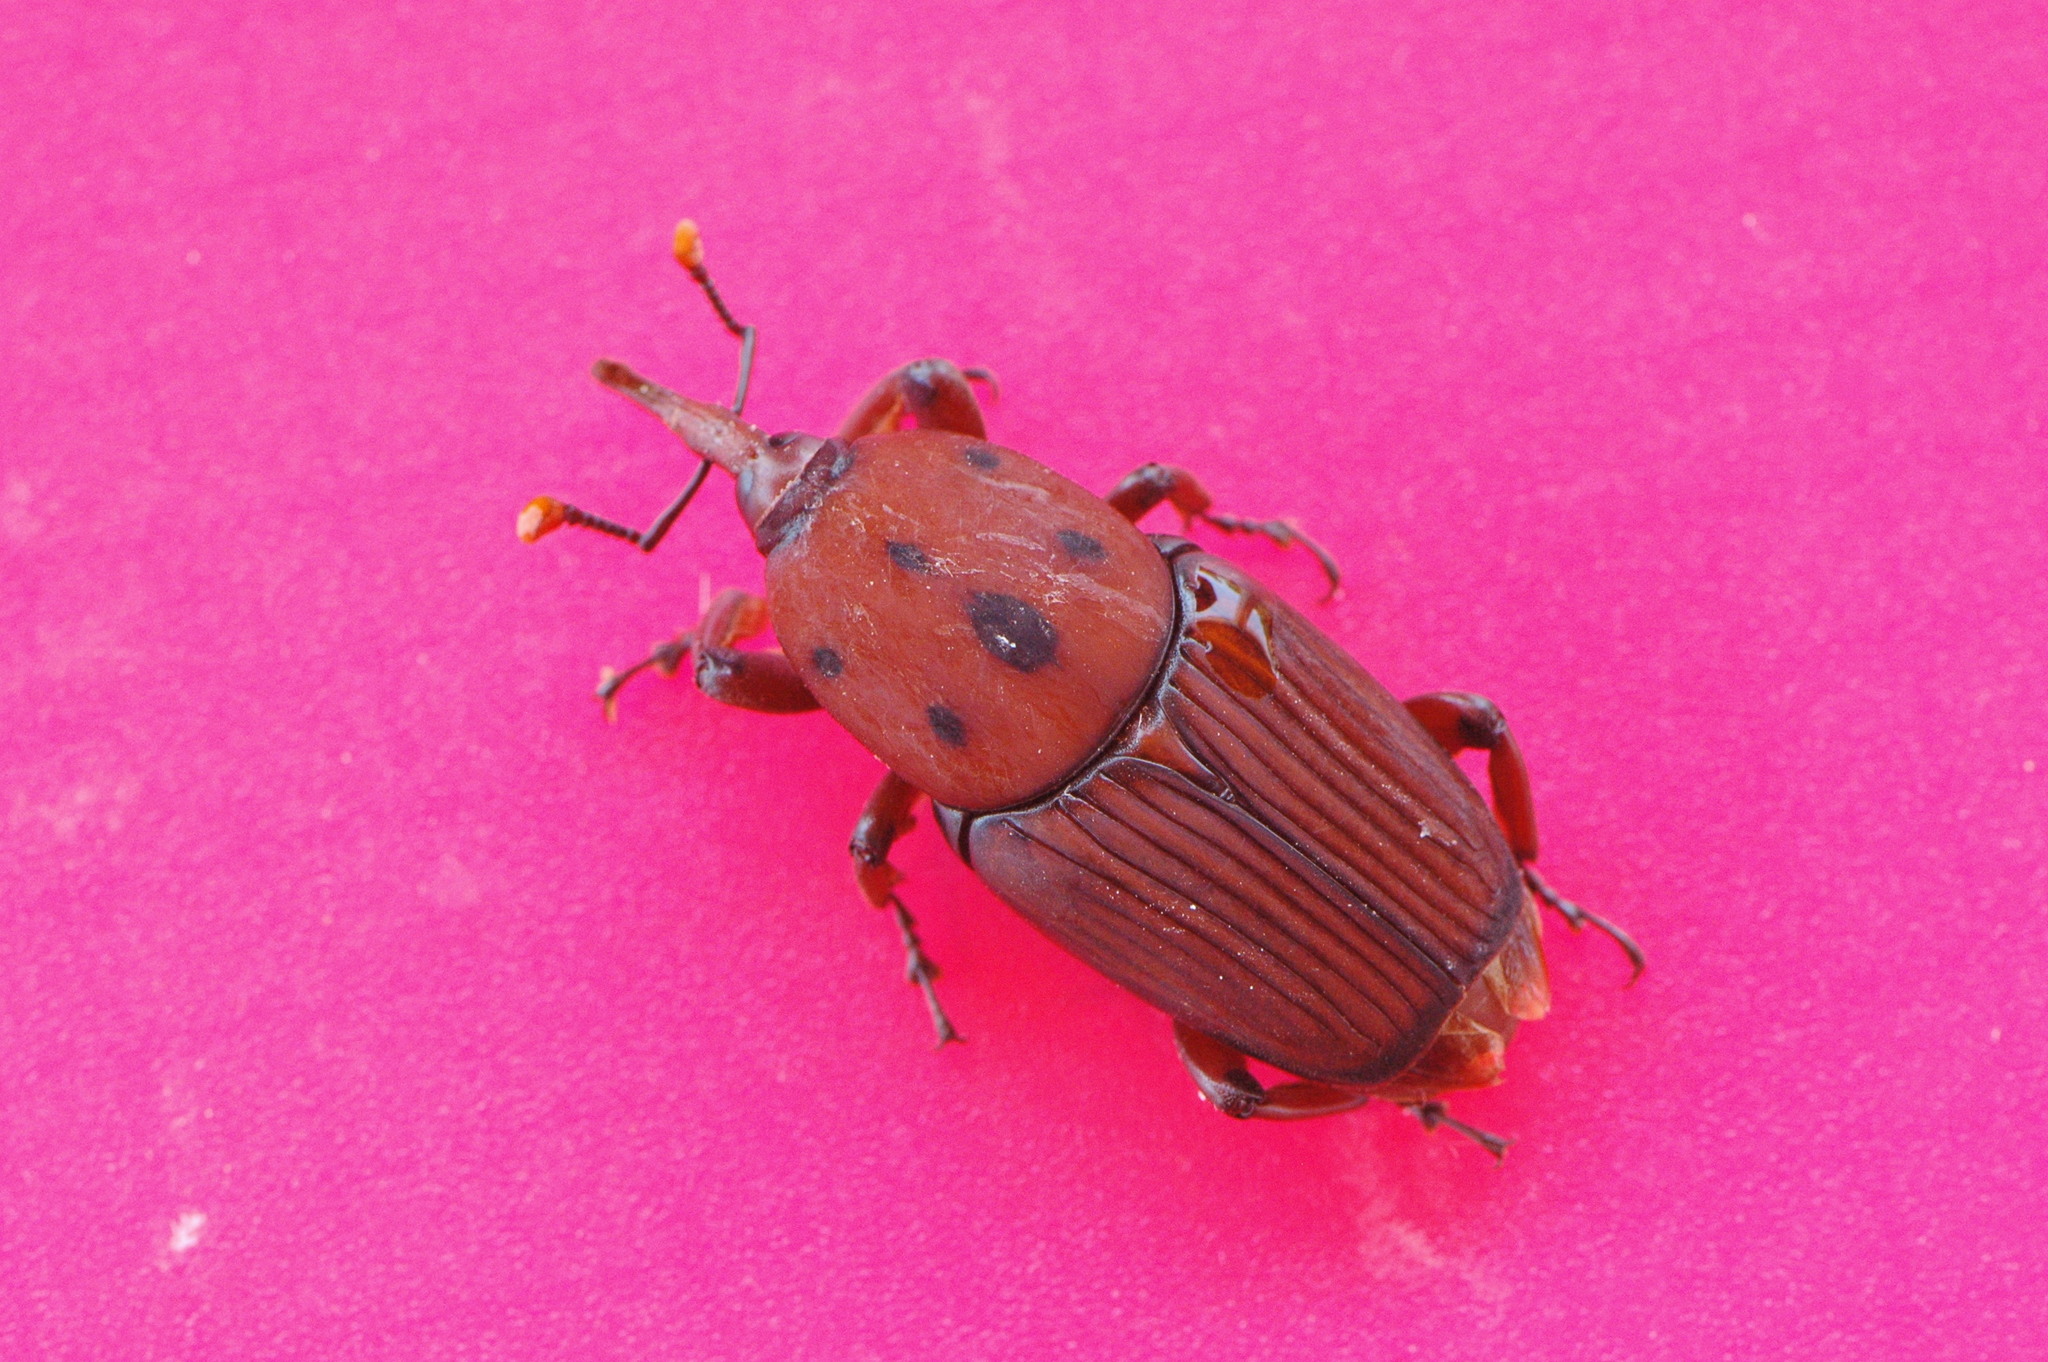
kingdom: Animalia
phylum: Arthropoda
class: Insecta
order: Coleoptera
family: Dryophthoridae
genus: Rhynchophorus
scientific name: Rhynchophorus ferrugineus
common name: Red palm weevil
